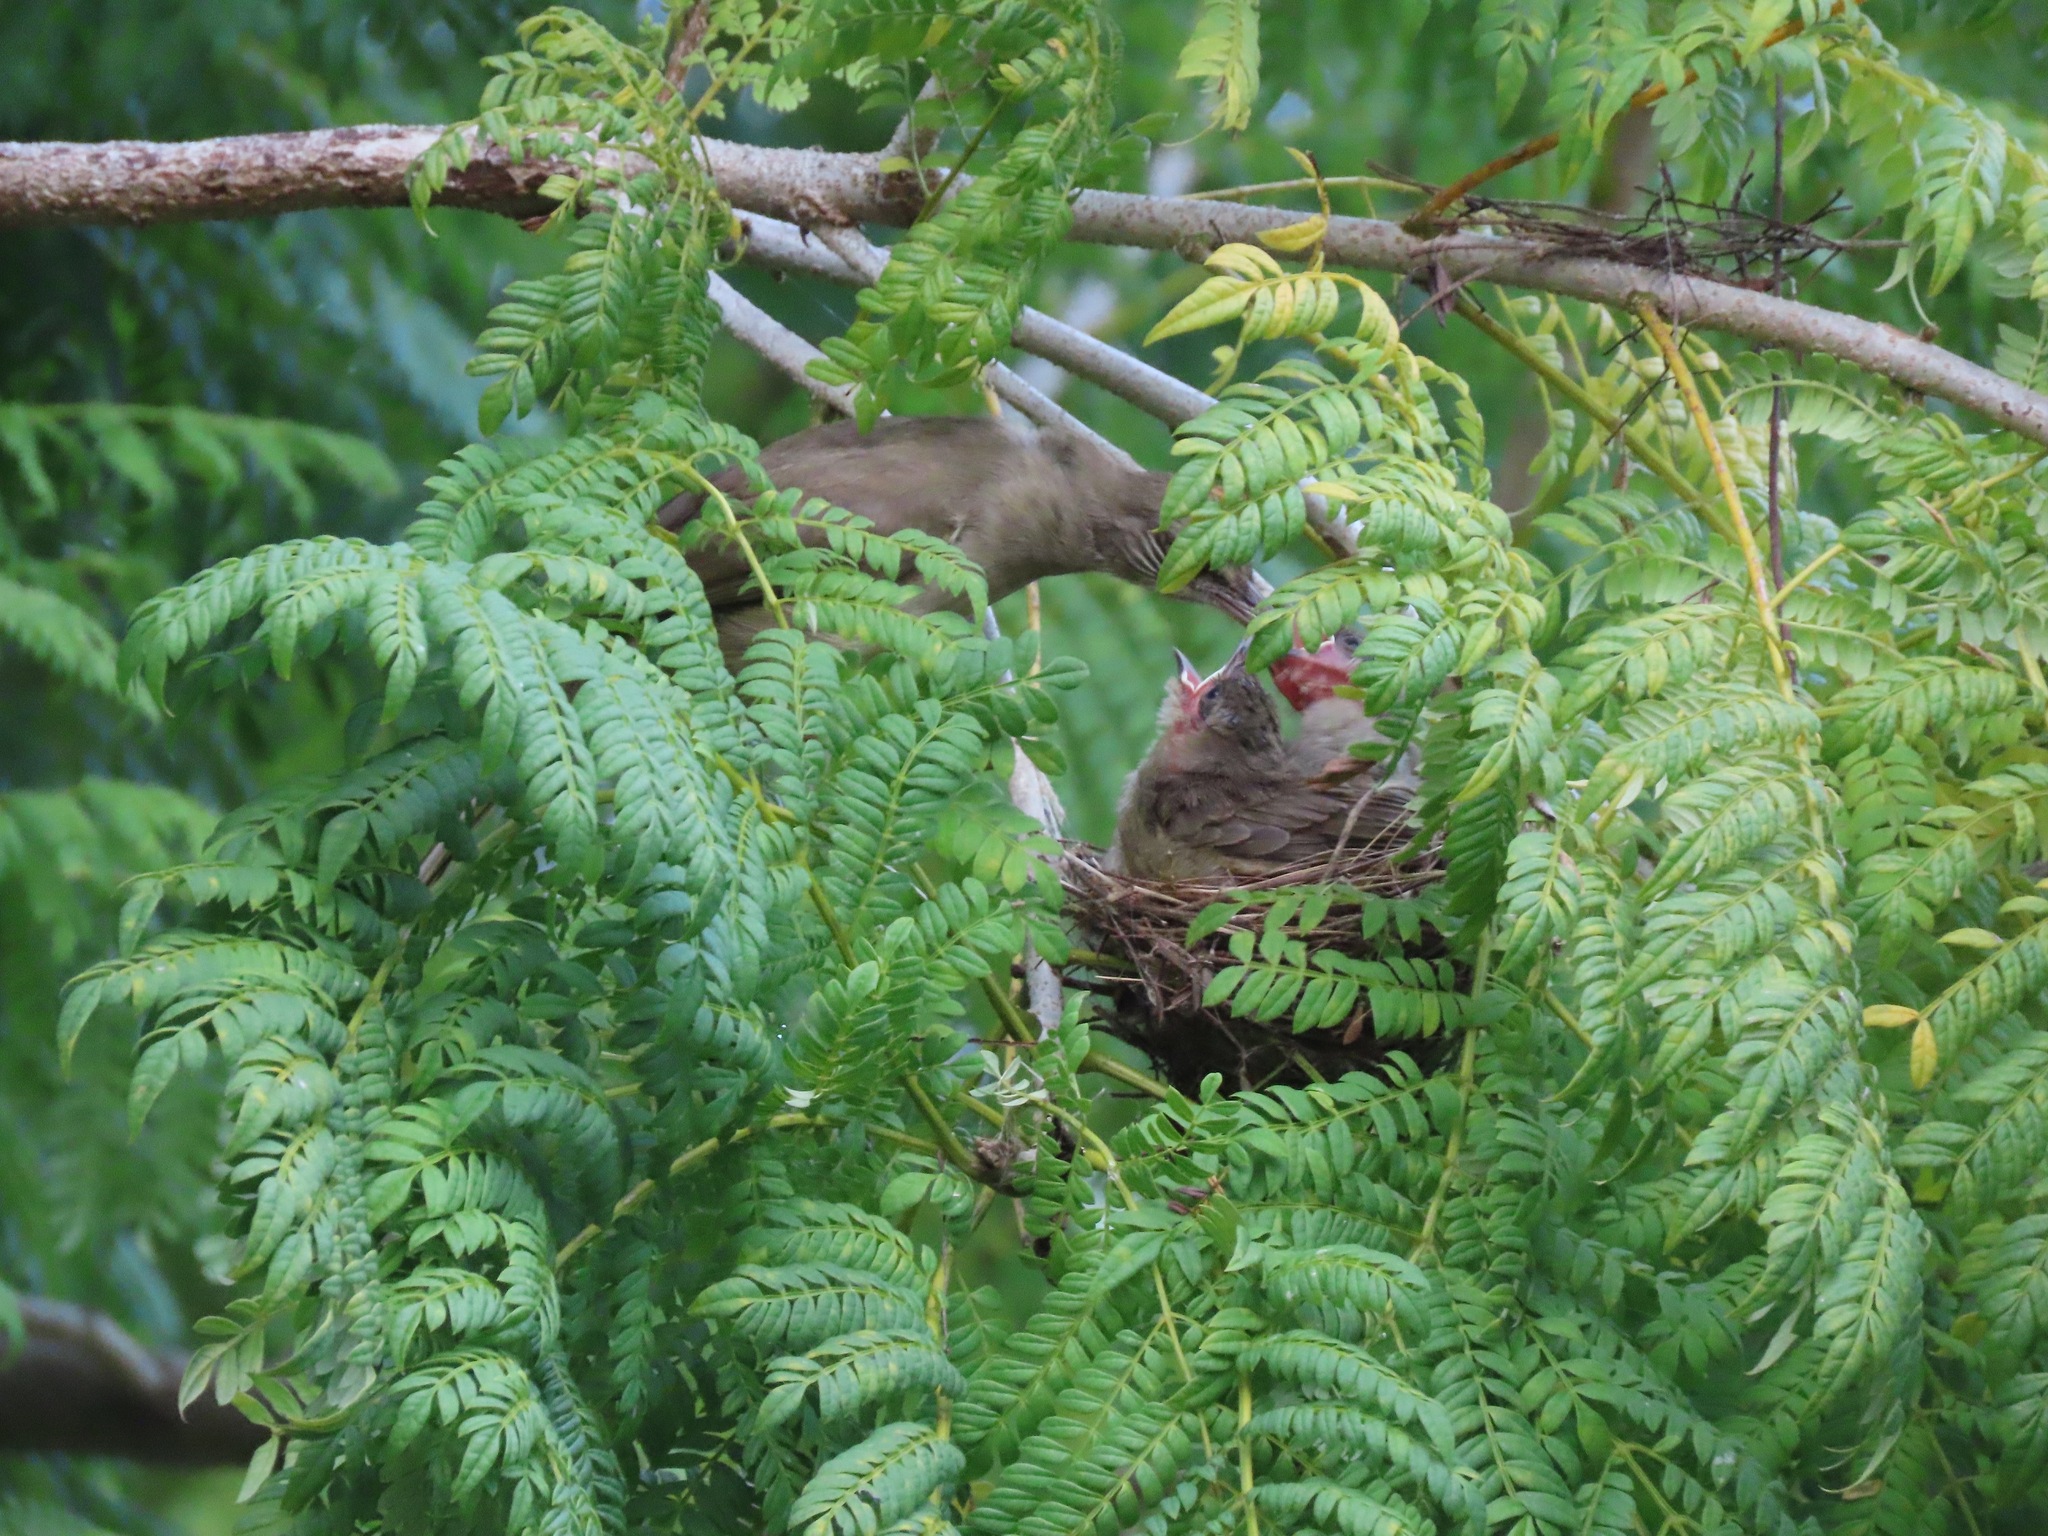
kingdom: Animalia
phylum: Chordata
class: Aves
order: Passeriformes
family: Pycnonotidae
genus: Pycnonotus
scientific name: Pycnonotus blanfordi
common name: Streak-eared bulbul
